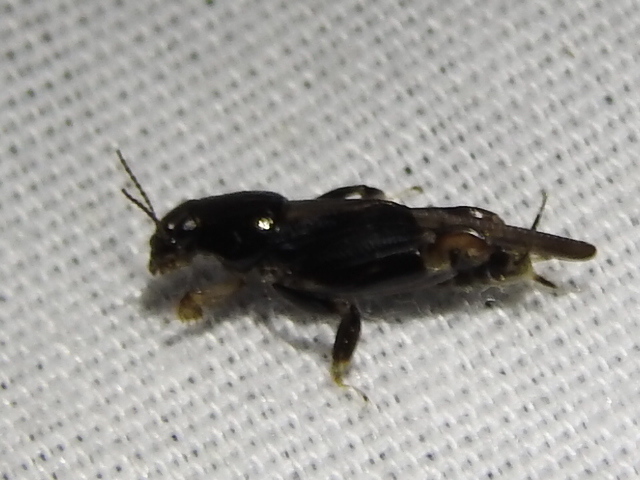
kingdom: Animalia
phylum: Arthropoda
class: Insecta
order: Orthoptera
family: Tridactylidae
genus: Neotridactylus
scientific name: Neotridactylus apicialis
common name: Larger pygmy locust
